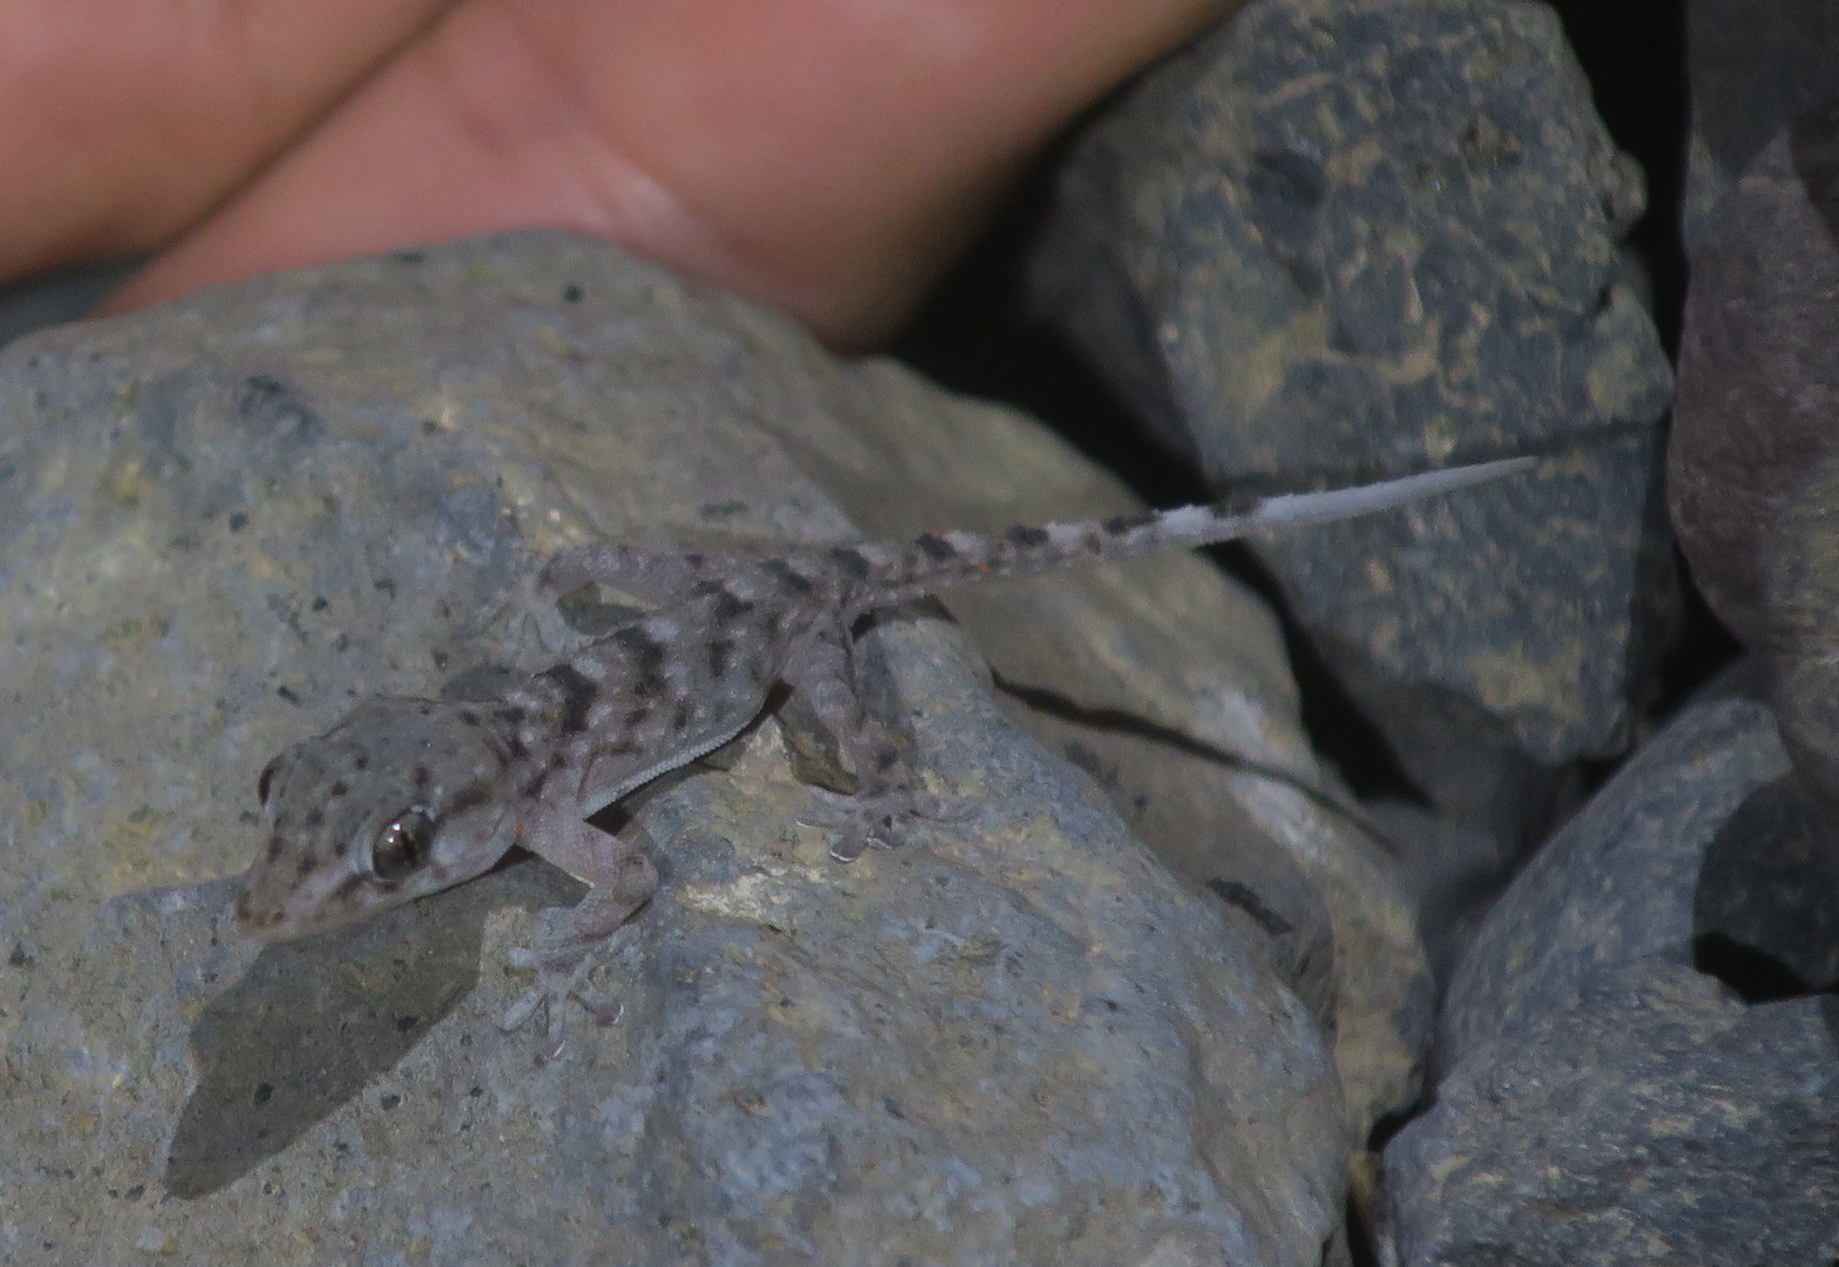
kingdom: Animalia
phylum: Chordata
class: Squamata
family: Phyllodactylidae
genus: Tarentola
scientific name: Tarentola delalandii
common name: Tenerife wall gecko
